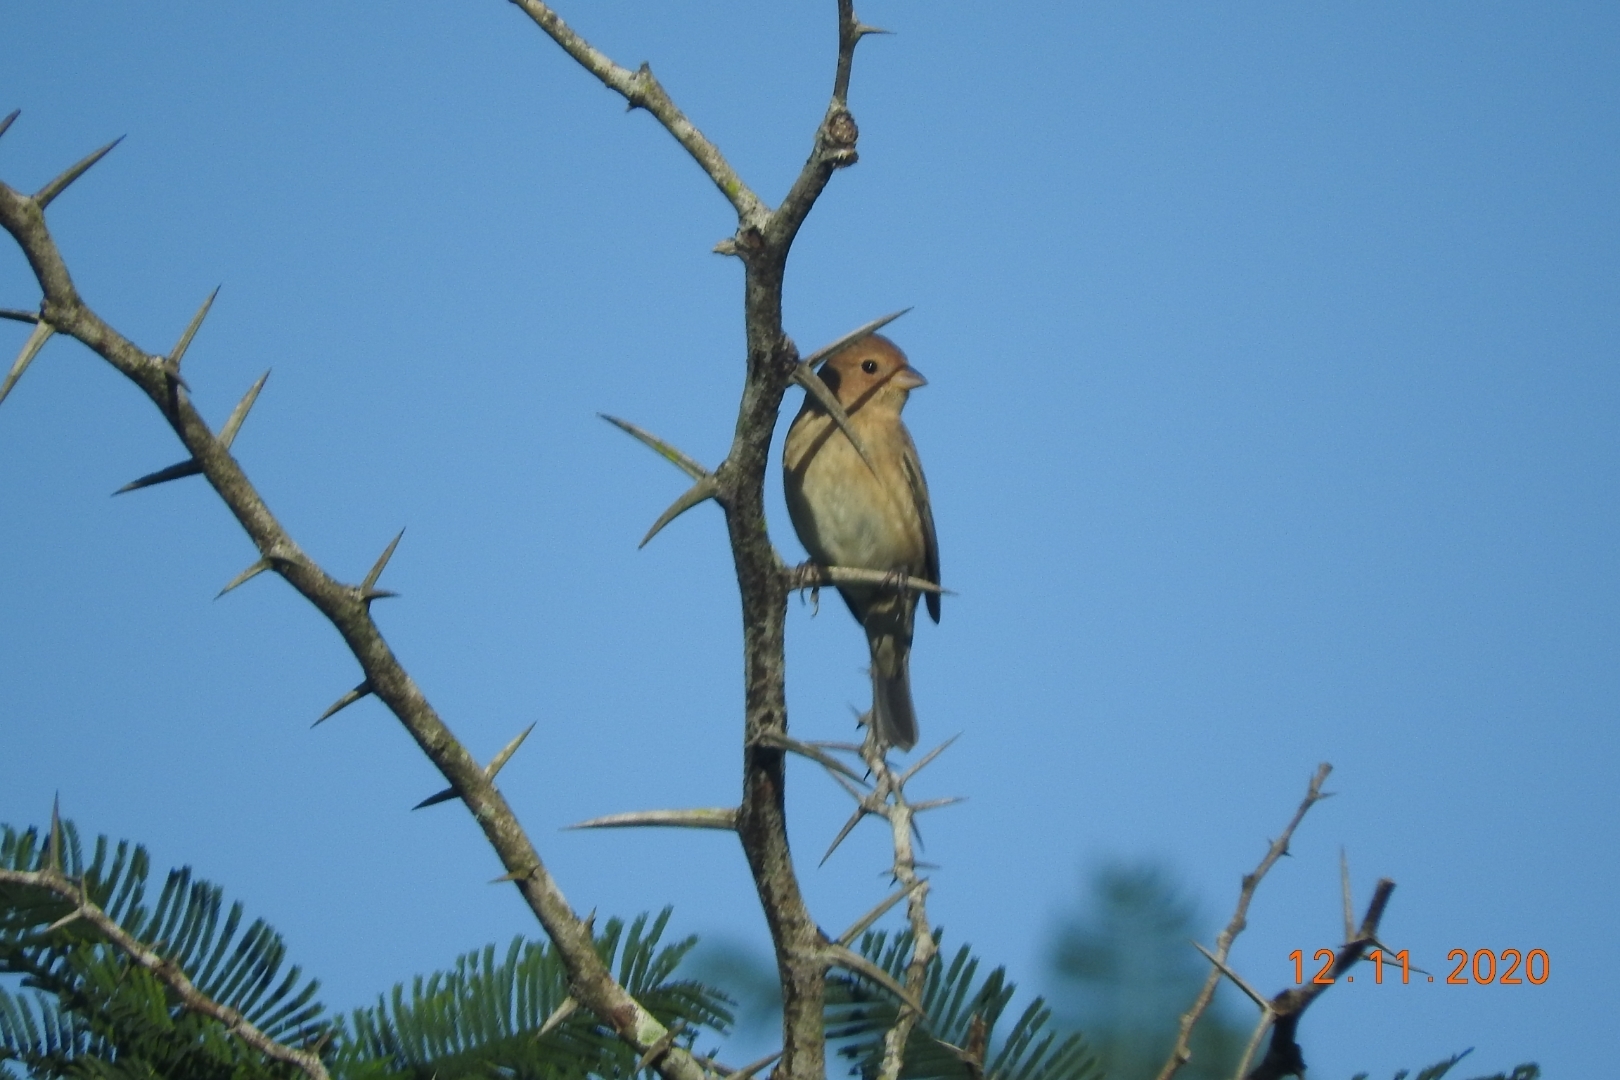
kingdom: Animalia
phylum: Chordata
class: Aves
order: Passeriformes
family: Cardinalidae
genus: Passerina
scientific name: Passerina cyanea
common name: Indigo bunting
